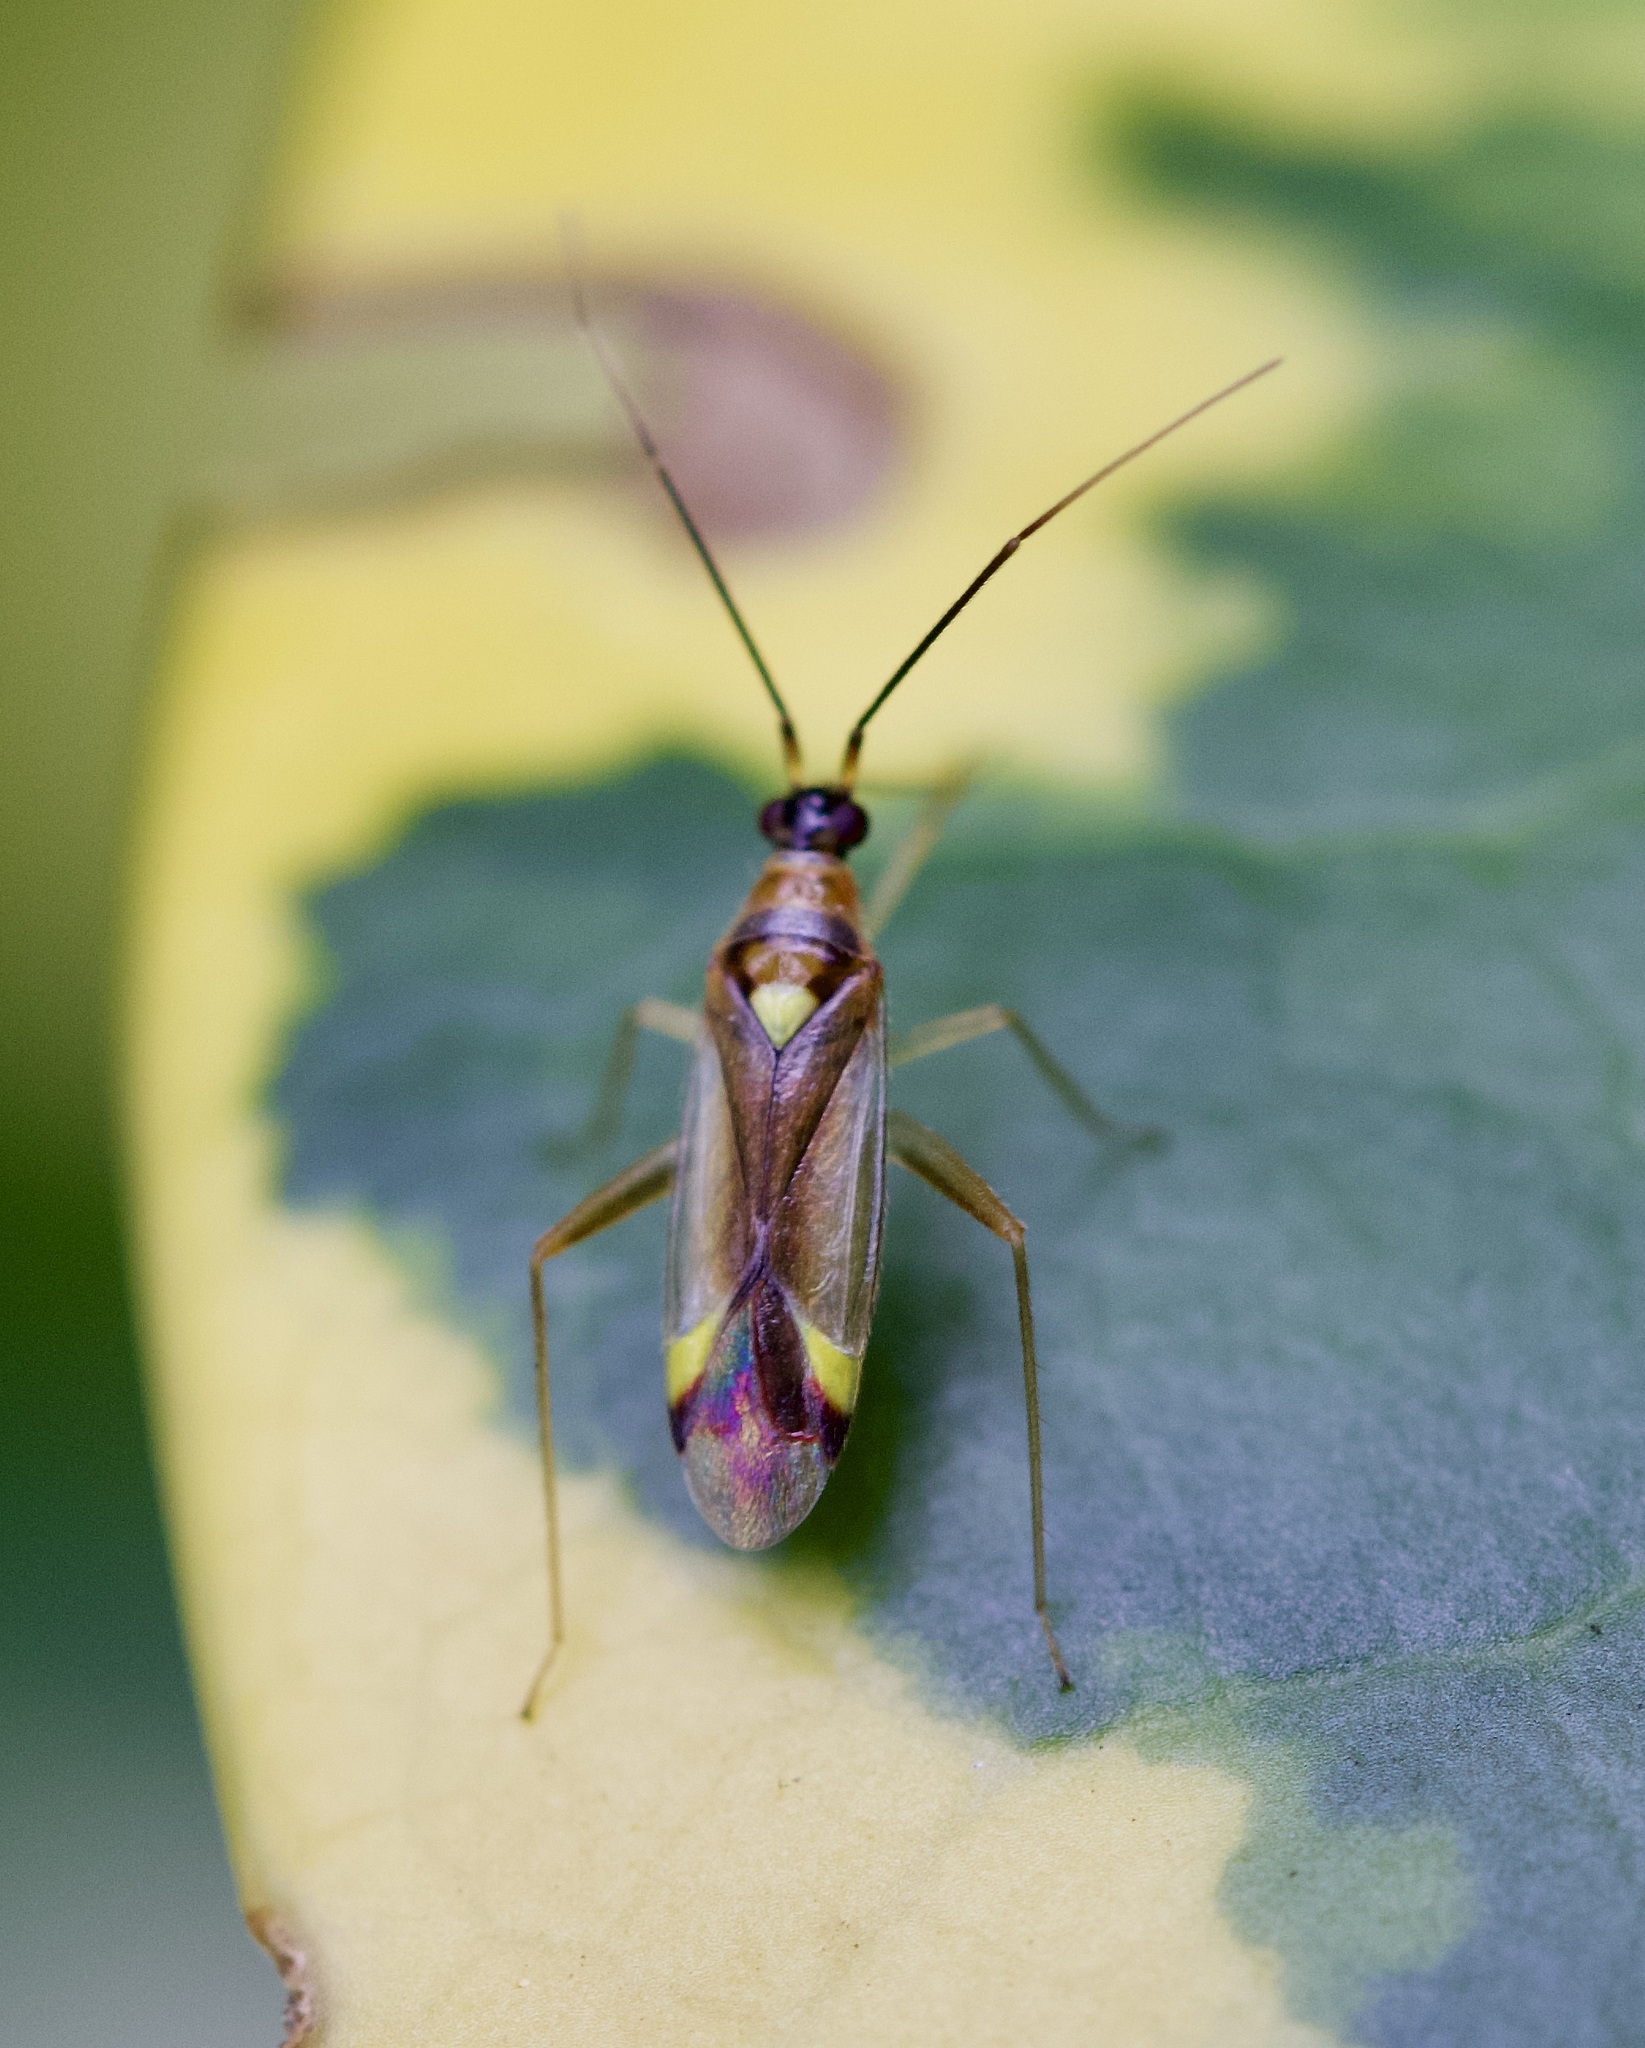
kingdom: Animalia
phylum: Arthropoda
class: Insecta
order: Hemiptera
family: Miridae
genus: Campyloneura
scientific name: Campyloneura virgula
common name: Predatory bug
